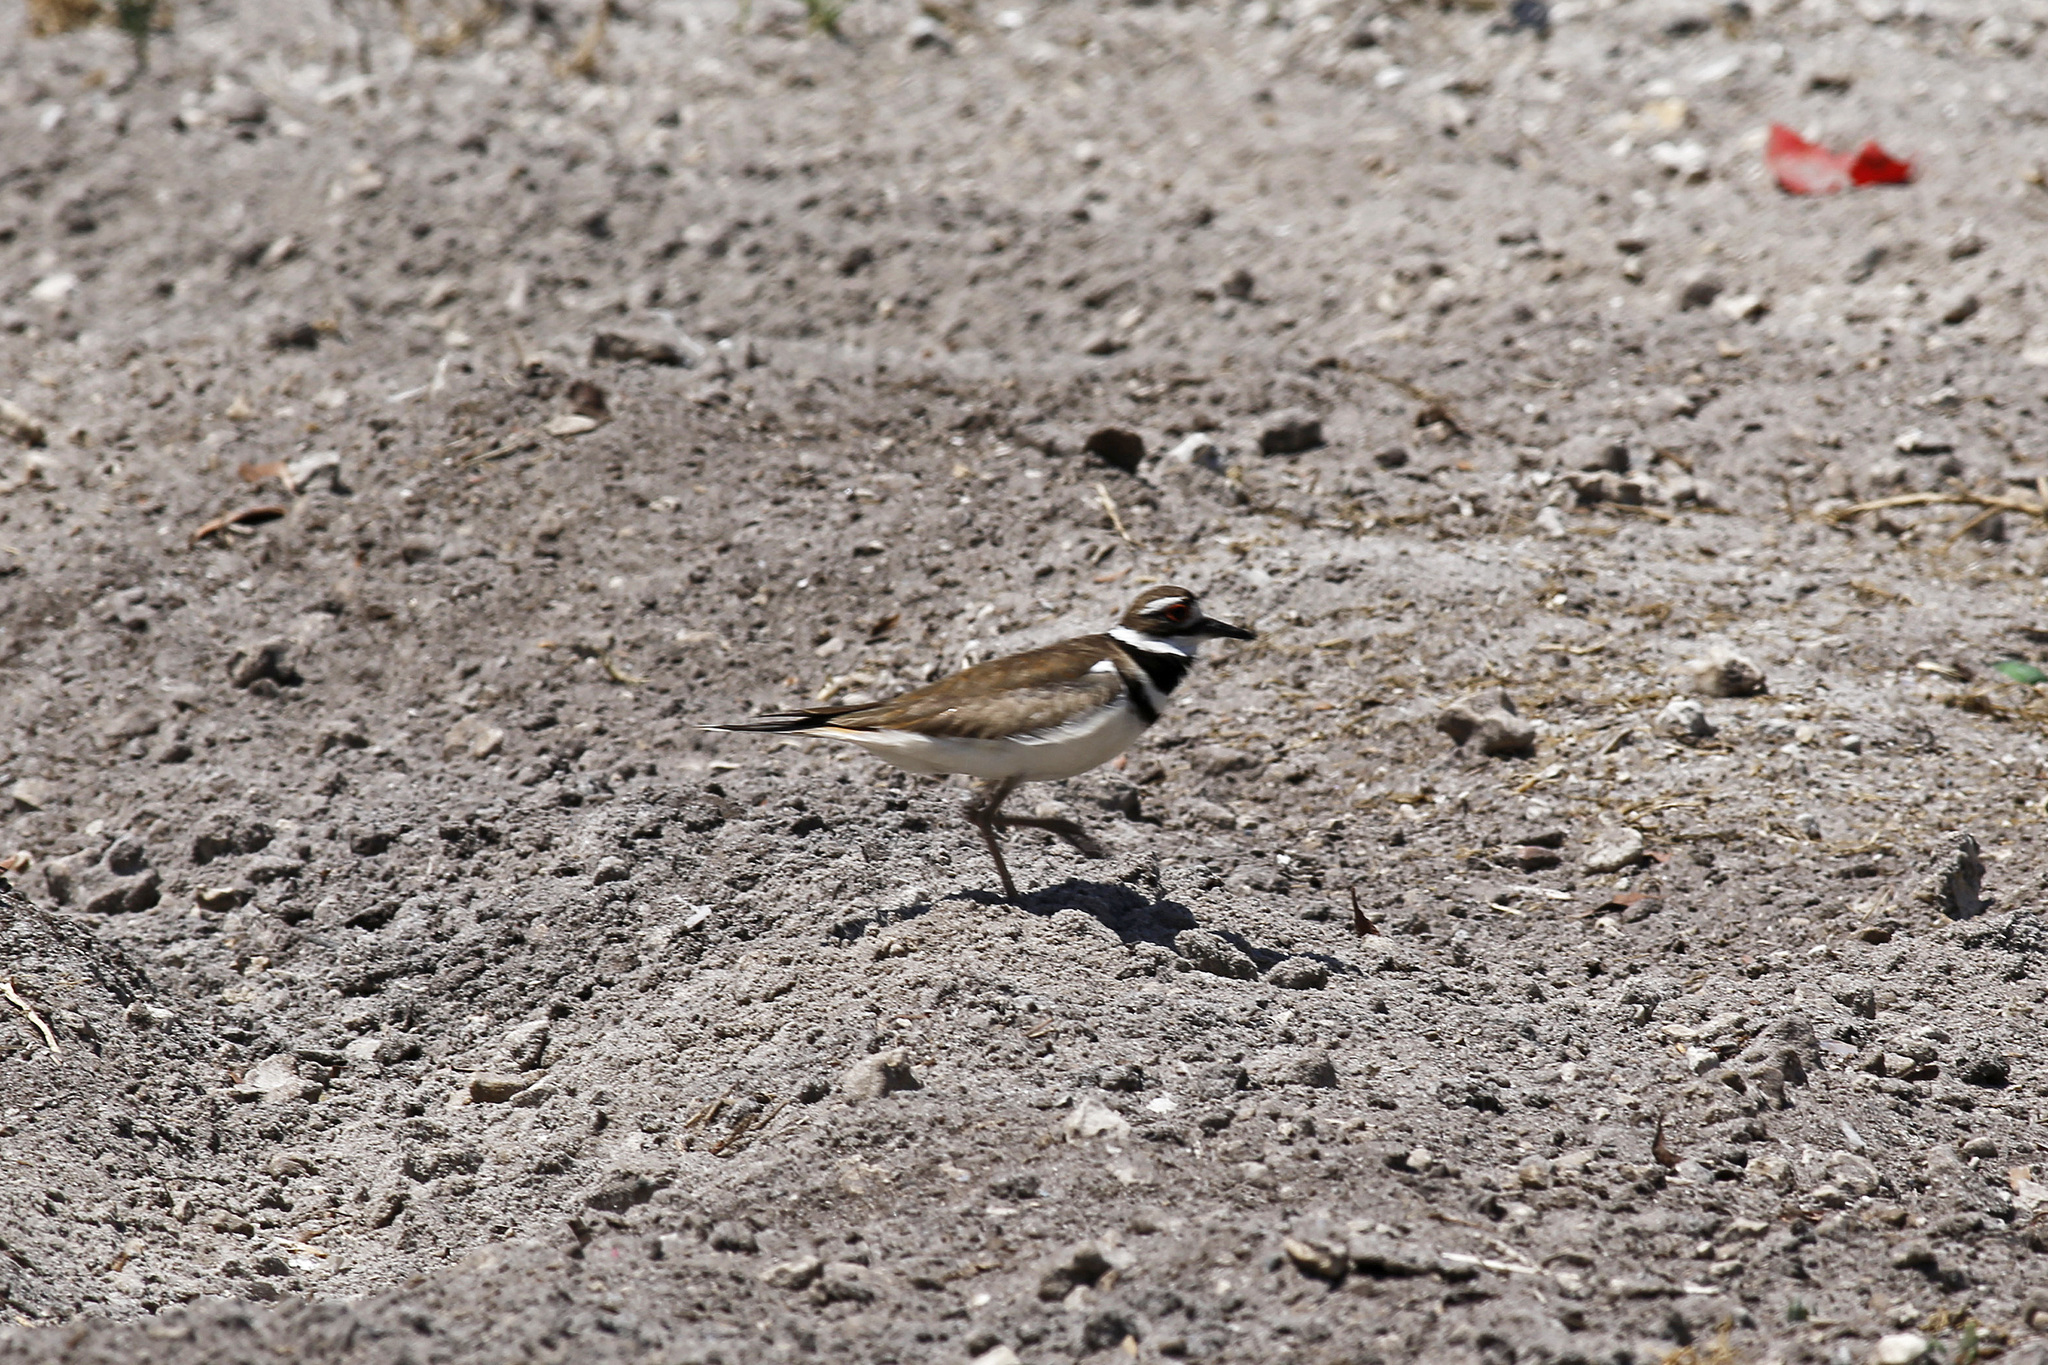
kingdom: Animalia
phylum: Chordata
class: Aves
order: Charadriiformes
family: Charadriidae
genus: Charadrius
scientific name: Charadrius vociferus
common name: Killdeer
